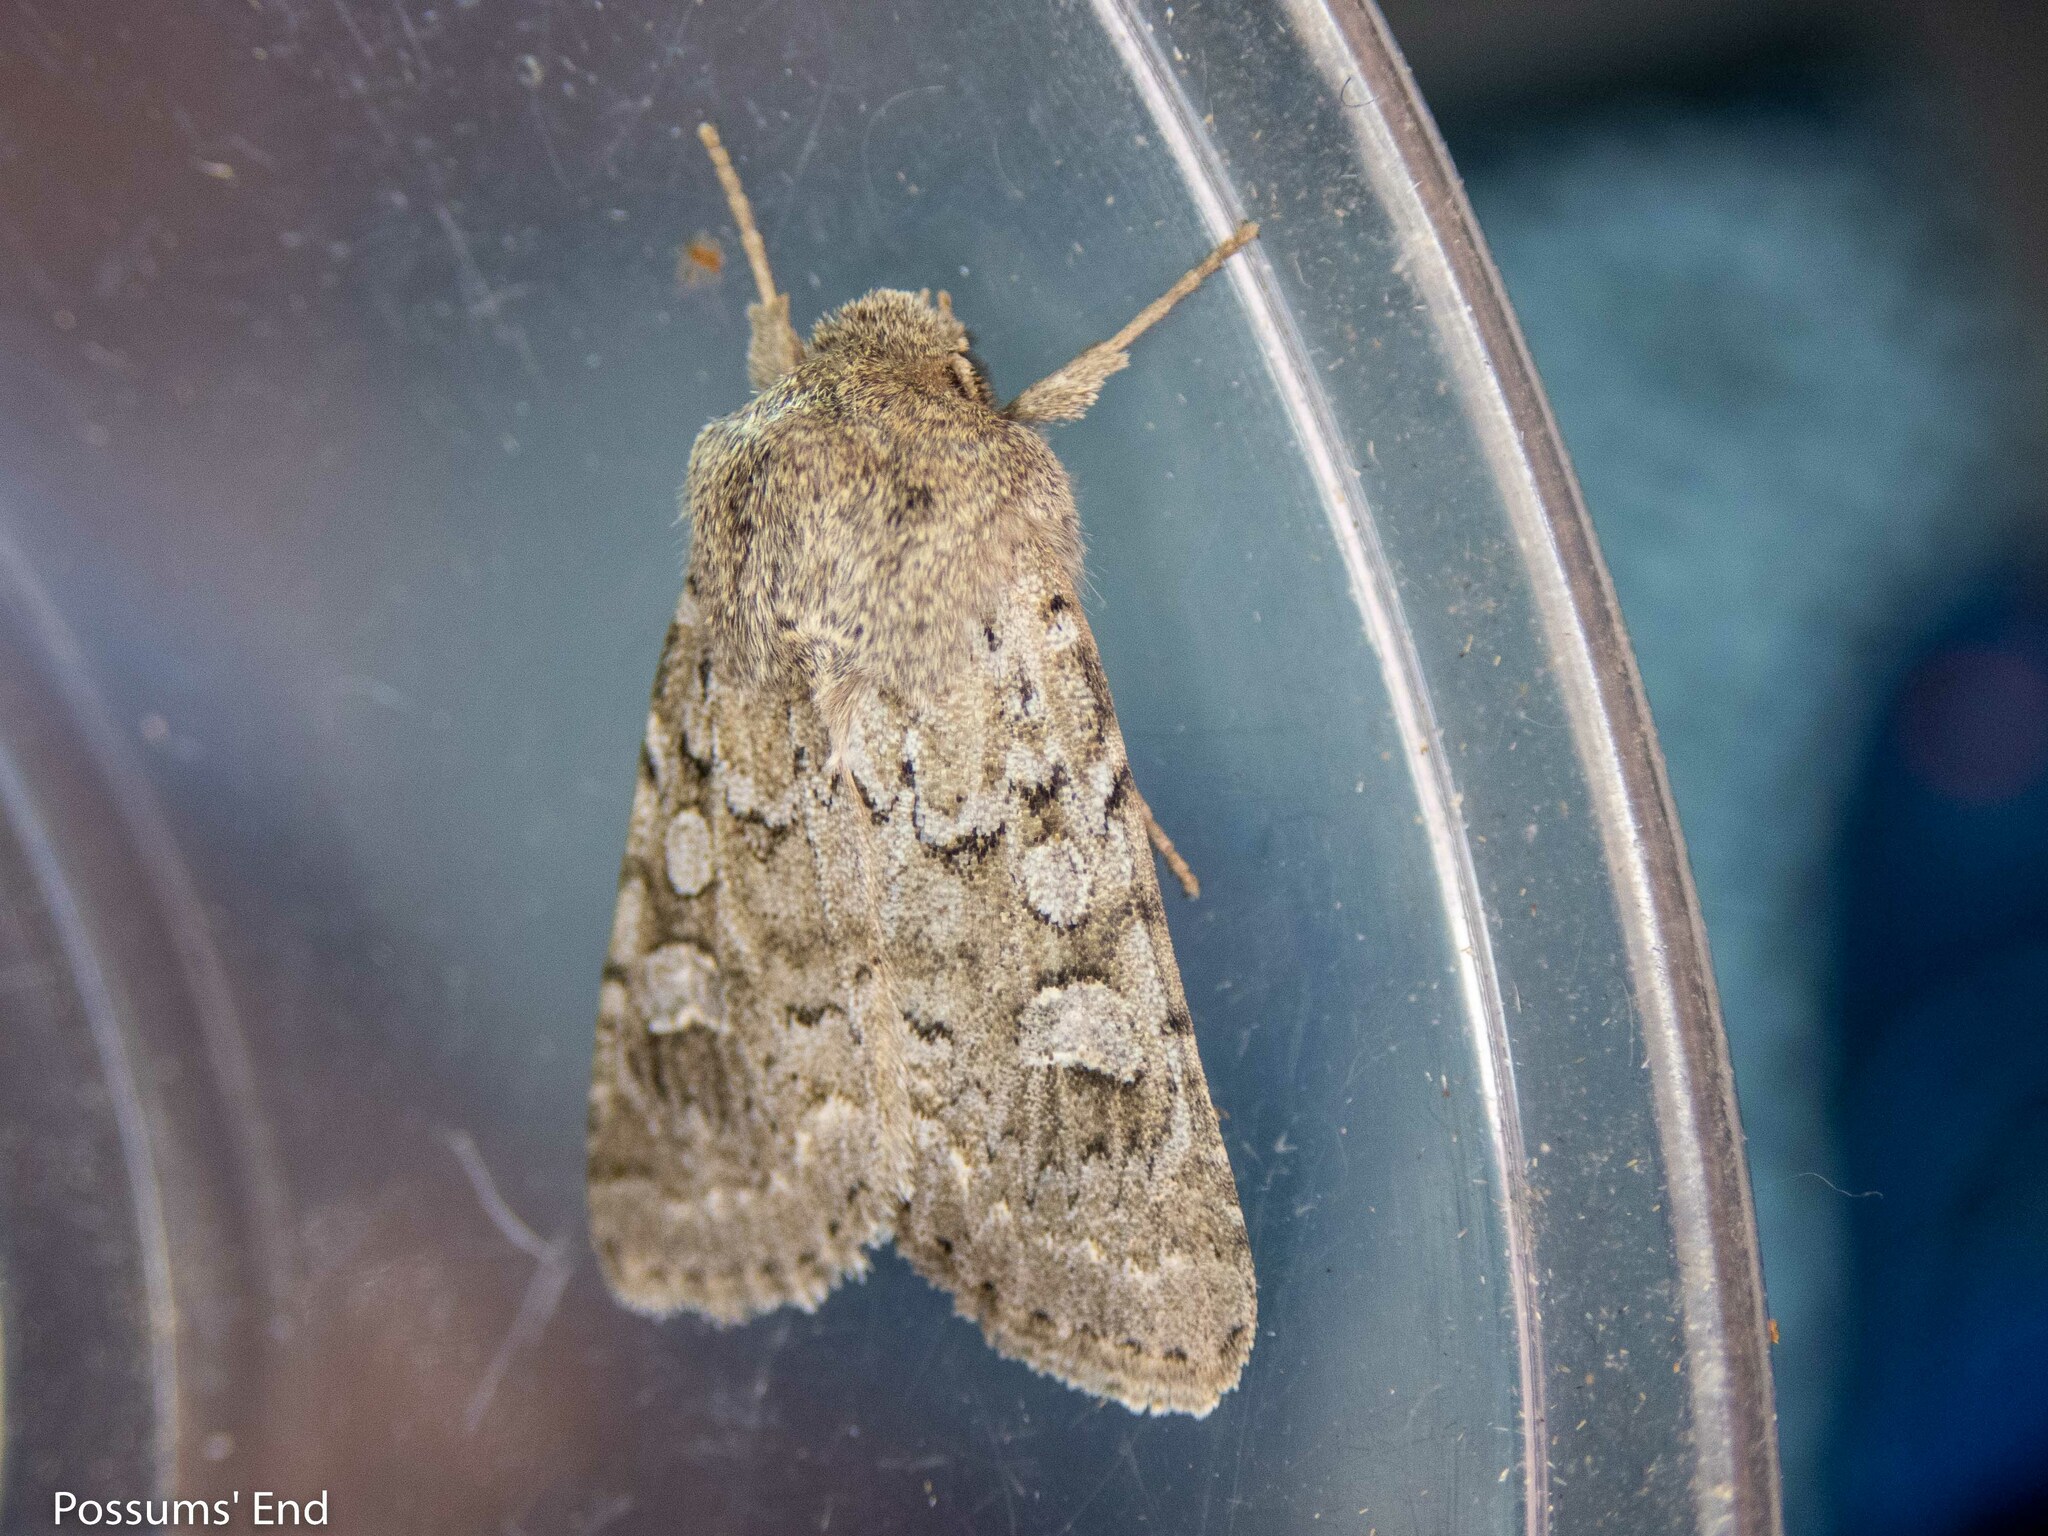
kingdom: Animalia
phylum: Arthropoda
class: Insecta
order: Lepidoptera
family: Noctuidae
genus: Ichneutica
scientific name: Ichneutica
